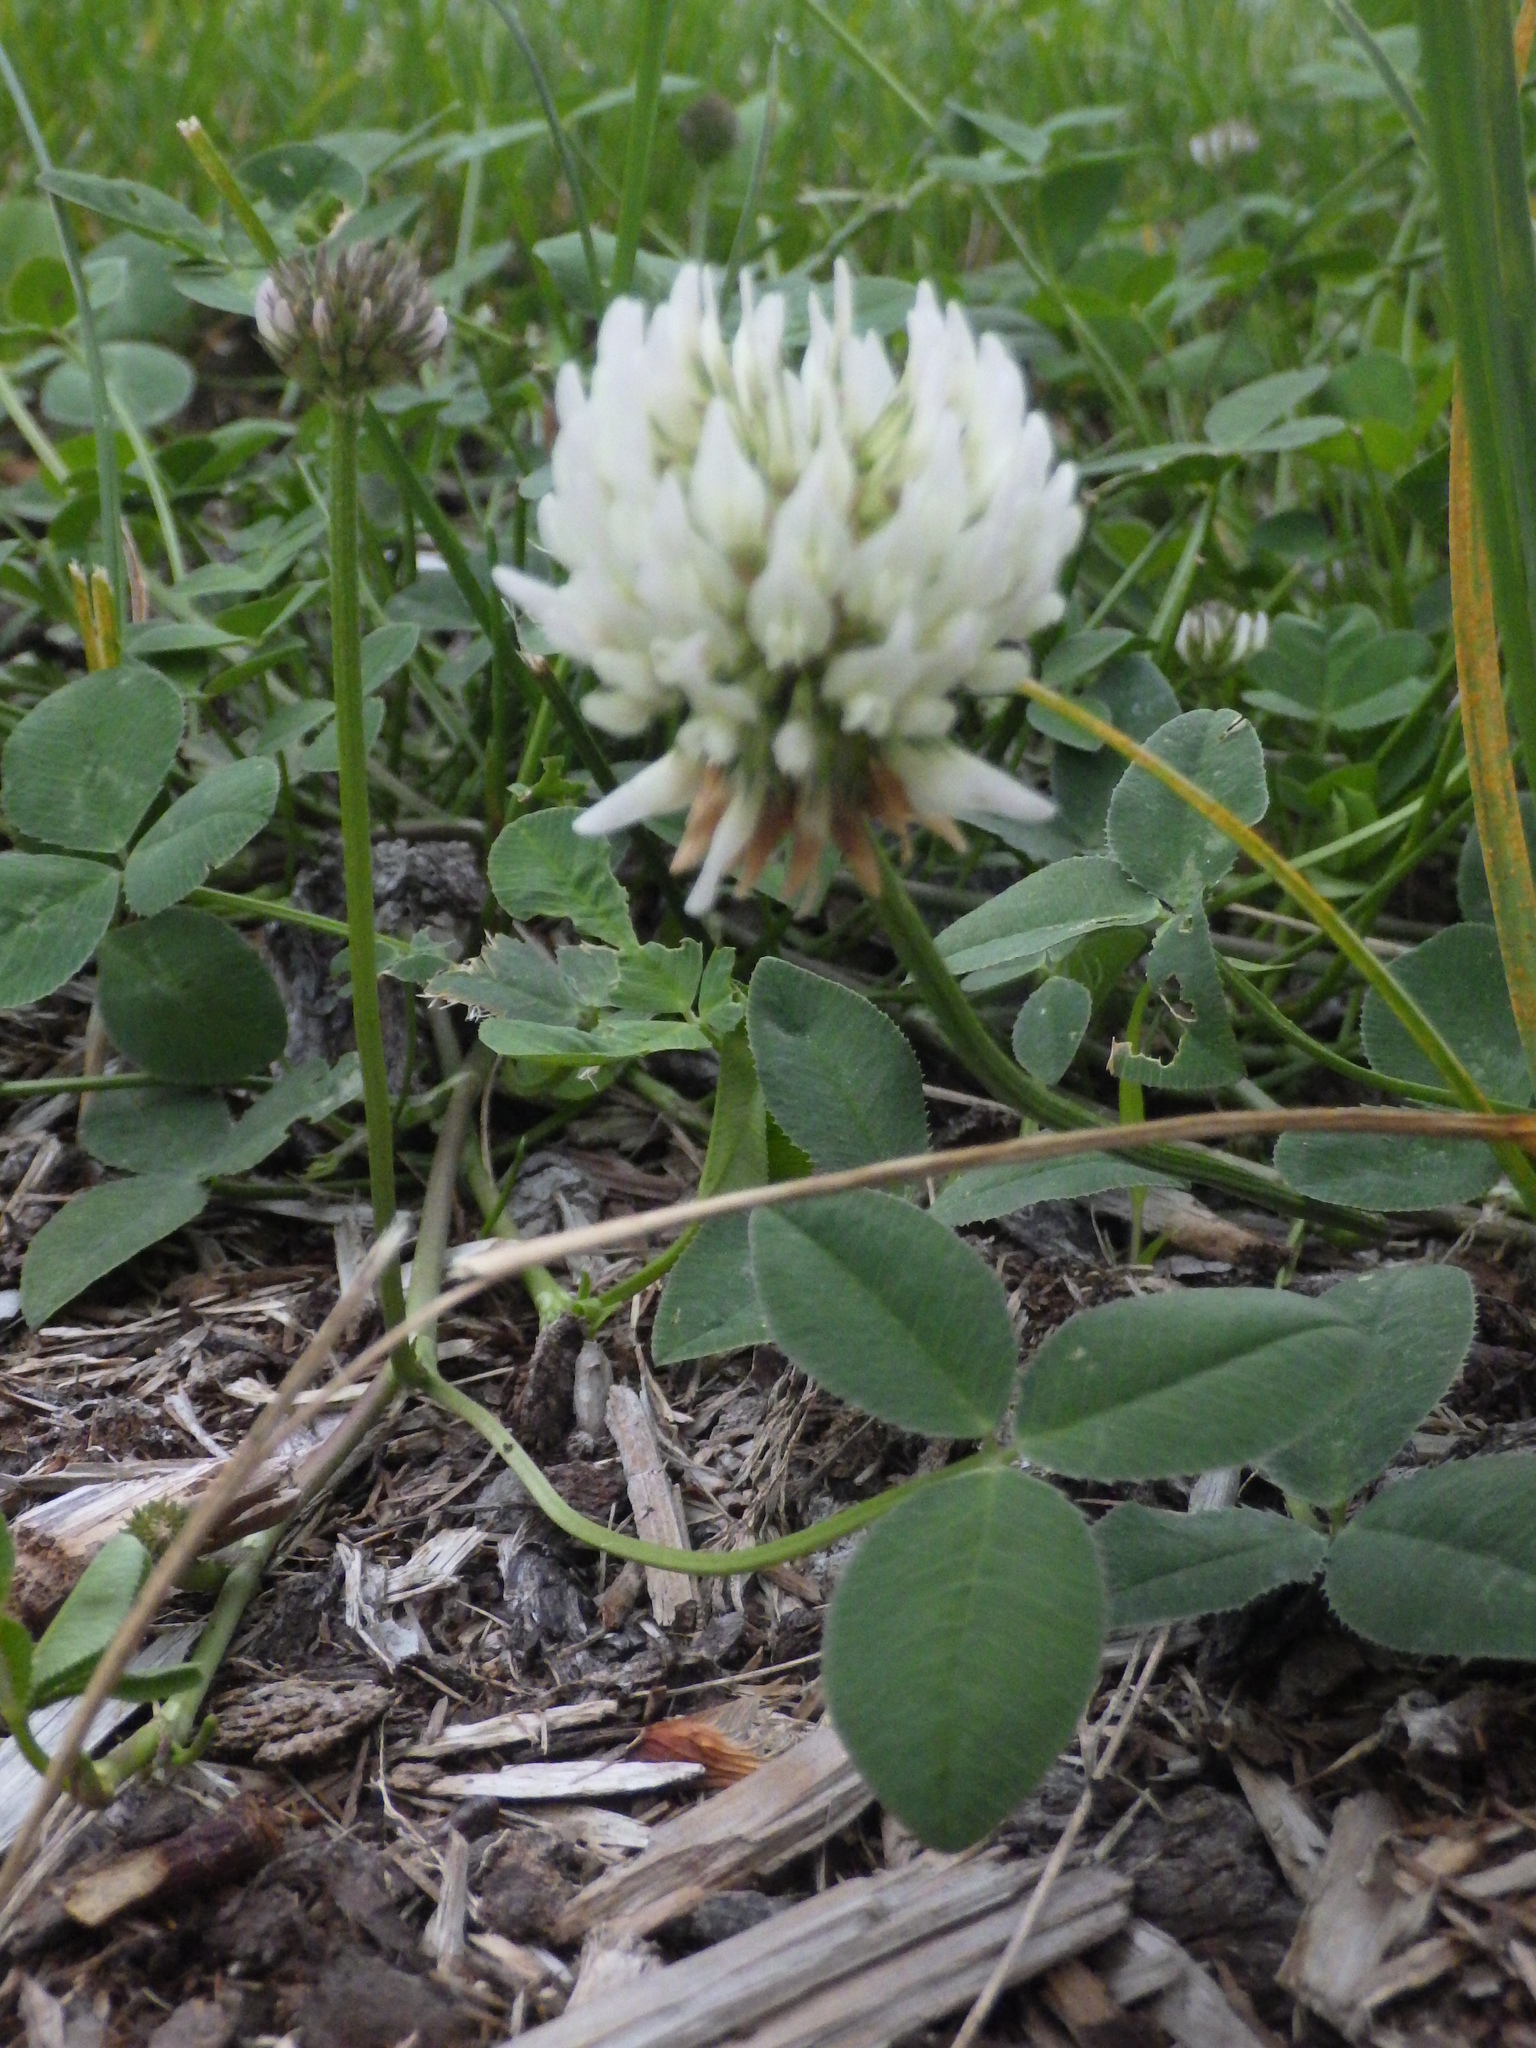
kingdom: Plantae
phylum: Tracheophyta
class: Magnoliopsida
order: Fabales
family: Fabaceae
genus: Trifolium
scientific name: Trifolium repens
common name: White clover
